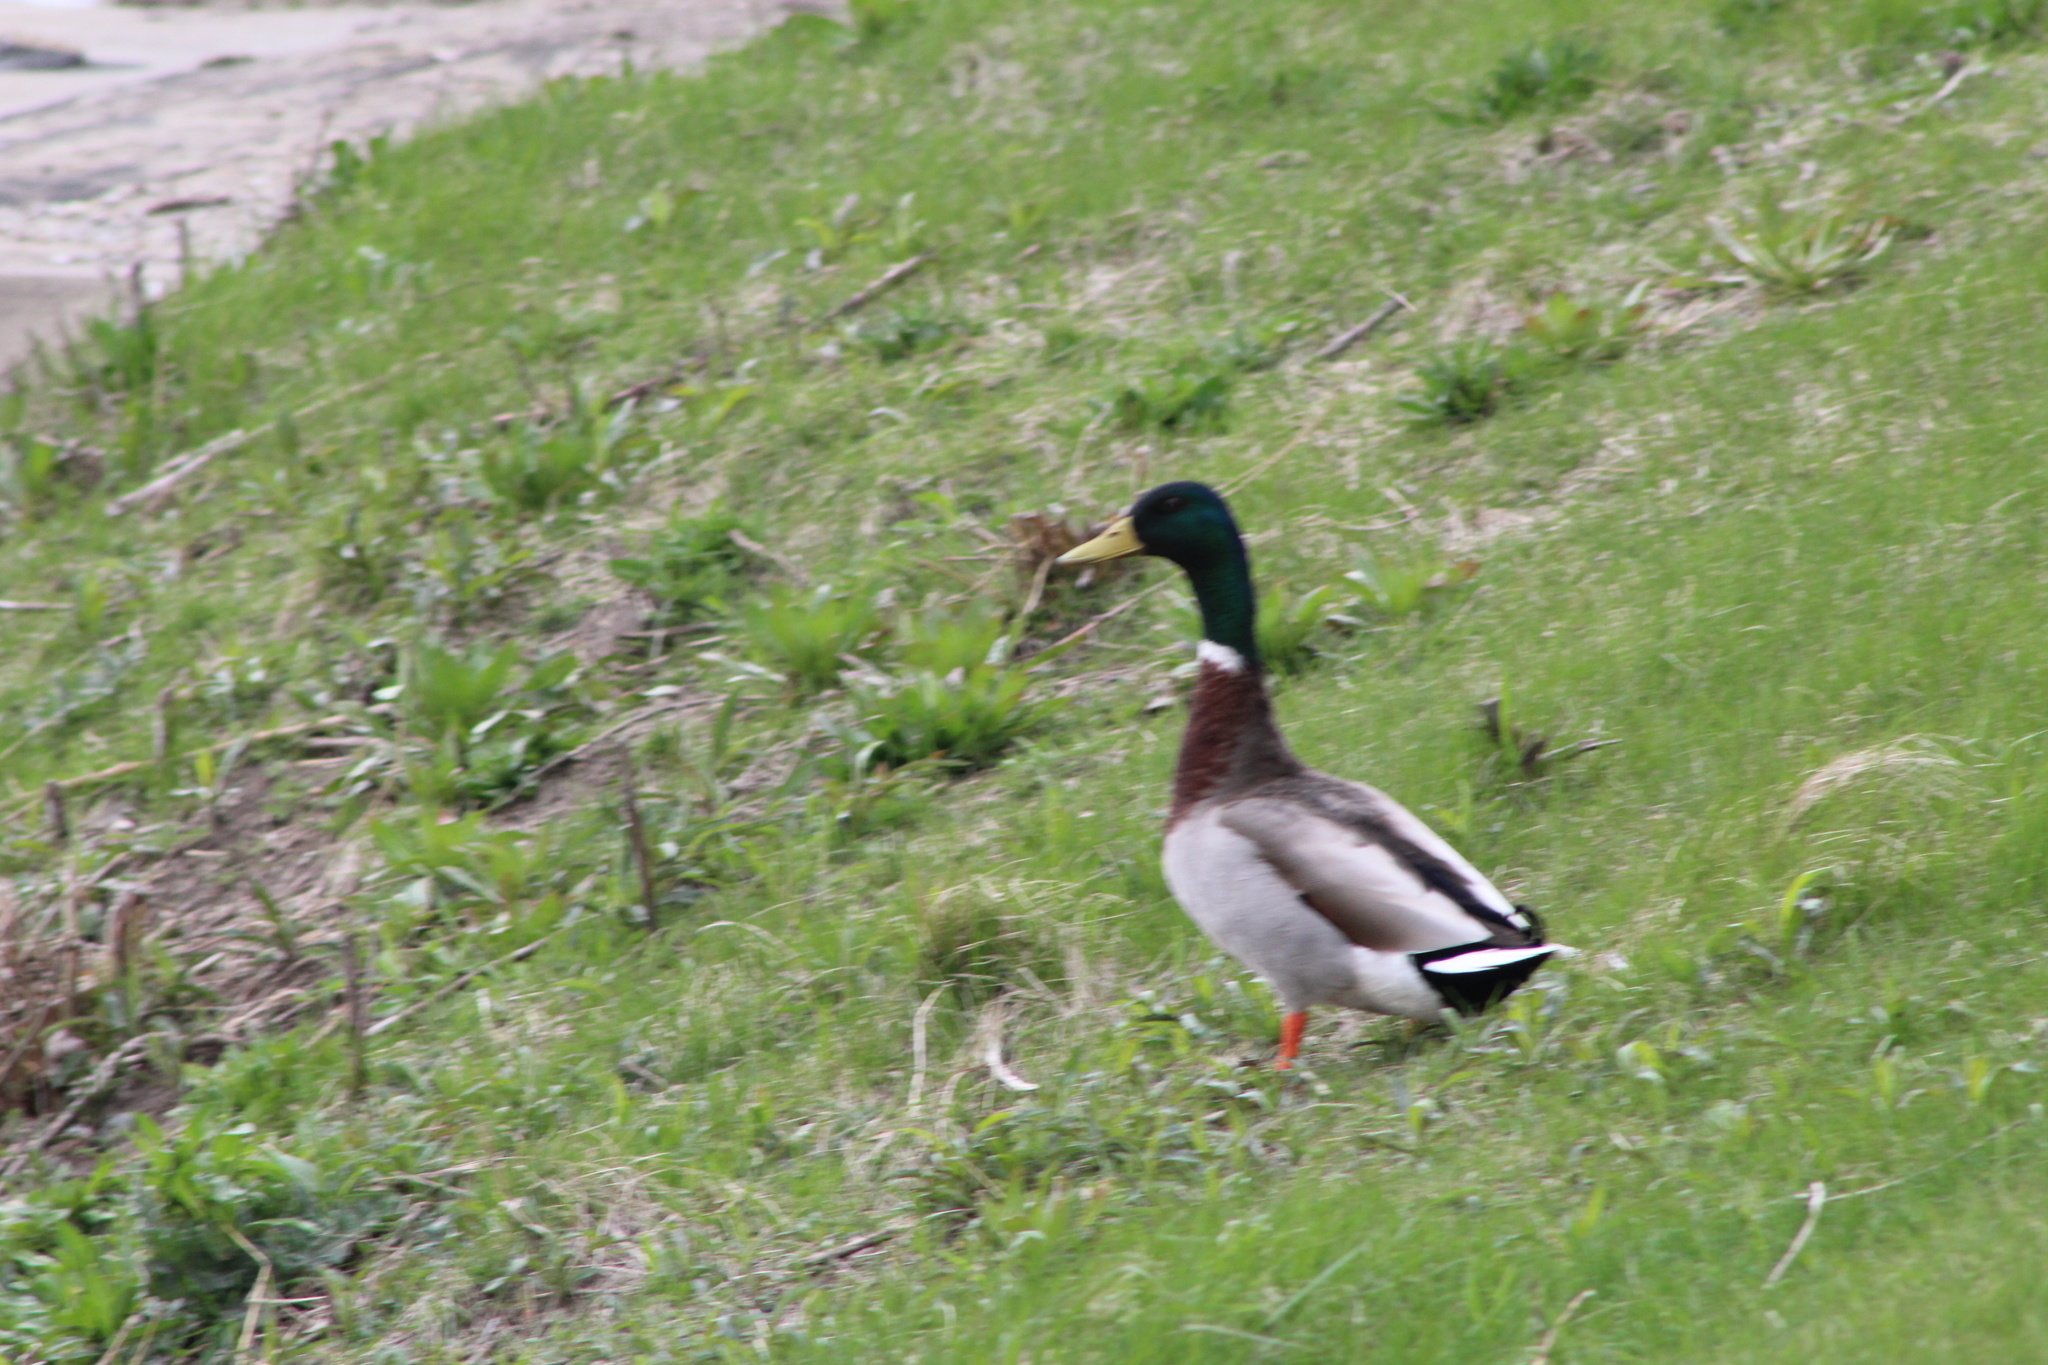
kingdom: Animalia
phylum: Chordata
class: Aves
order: Anseriformes
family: Anatidae
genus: Anas
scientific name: Anas platyrhynchos
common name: Mallard
